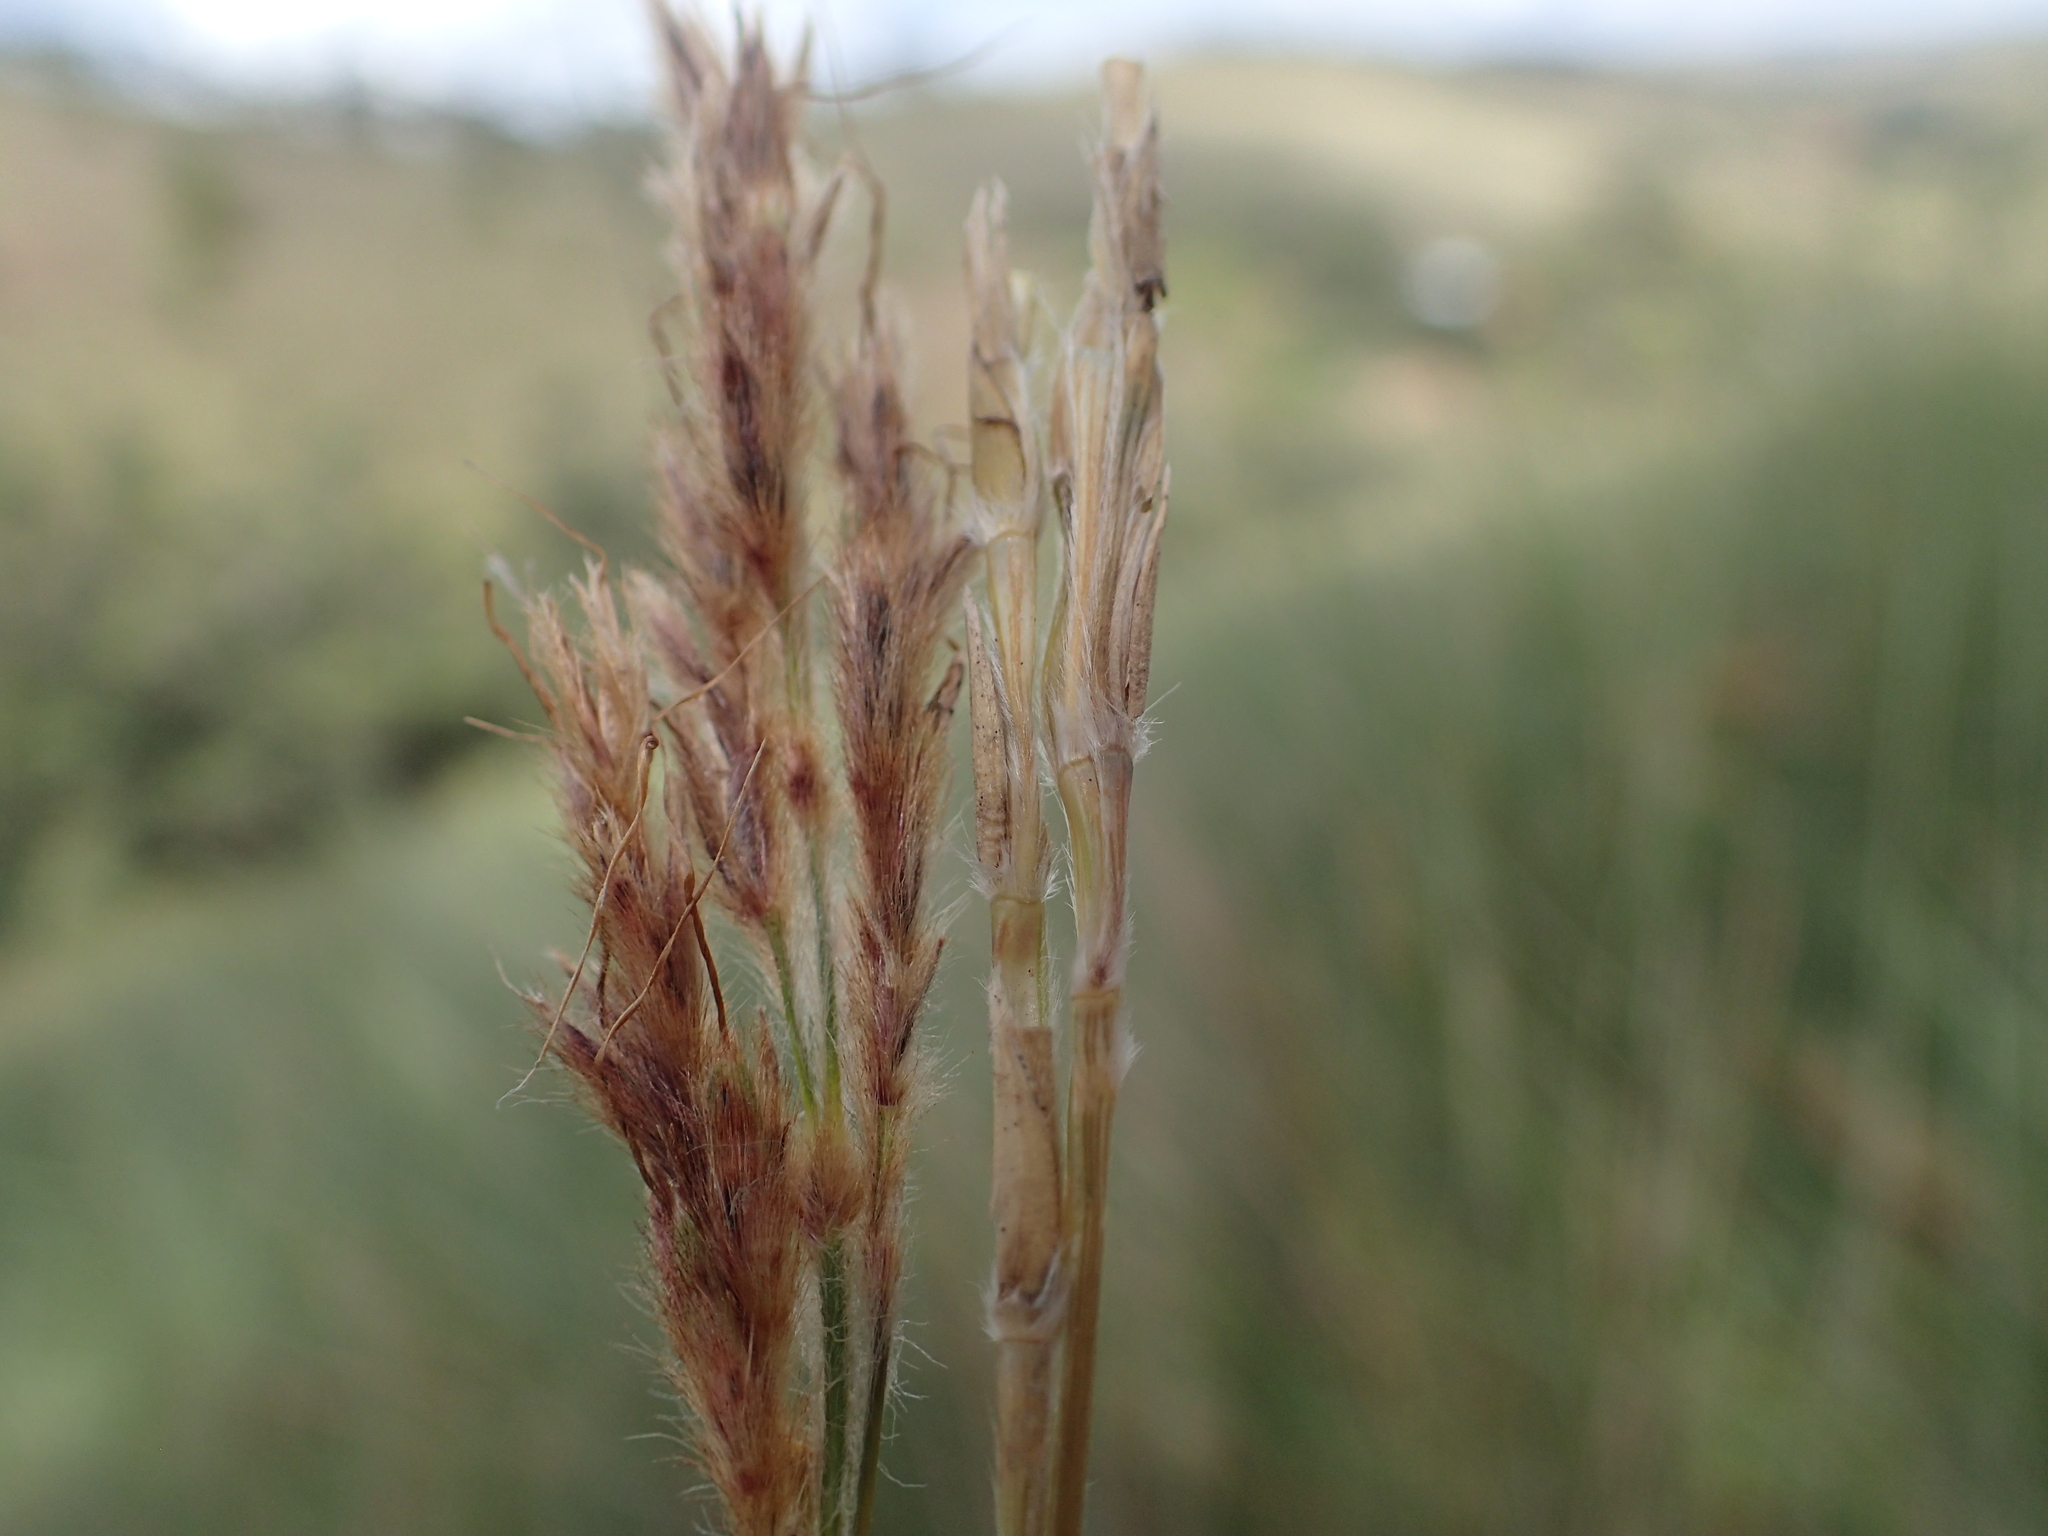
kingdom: Plantae
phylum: Tracheophyta
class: Liliopsida
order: Poales
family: Poaceae
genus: Lasiorhachis
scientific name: Lasiorhachis viguieri
